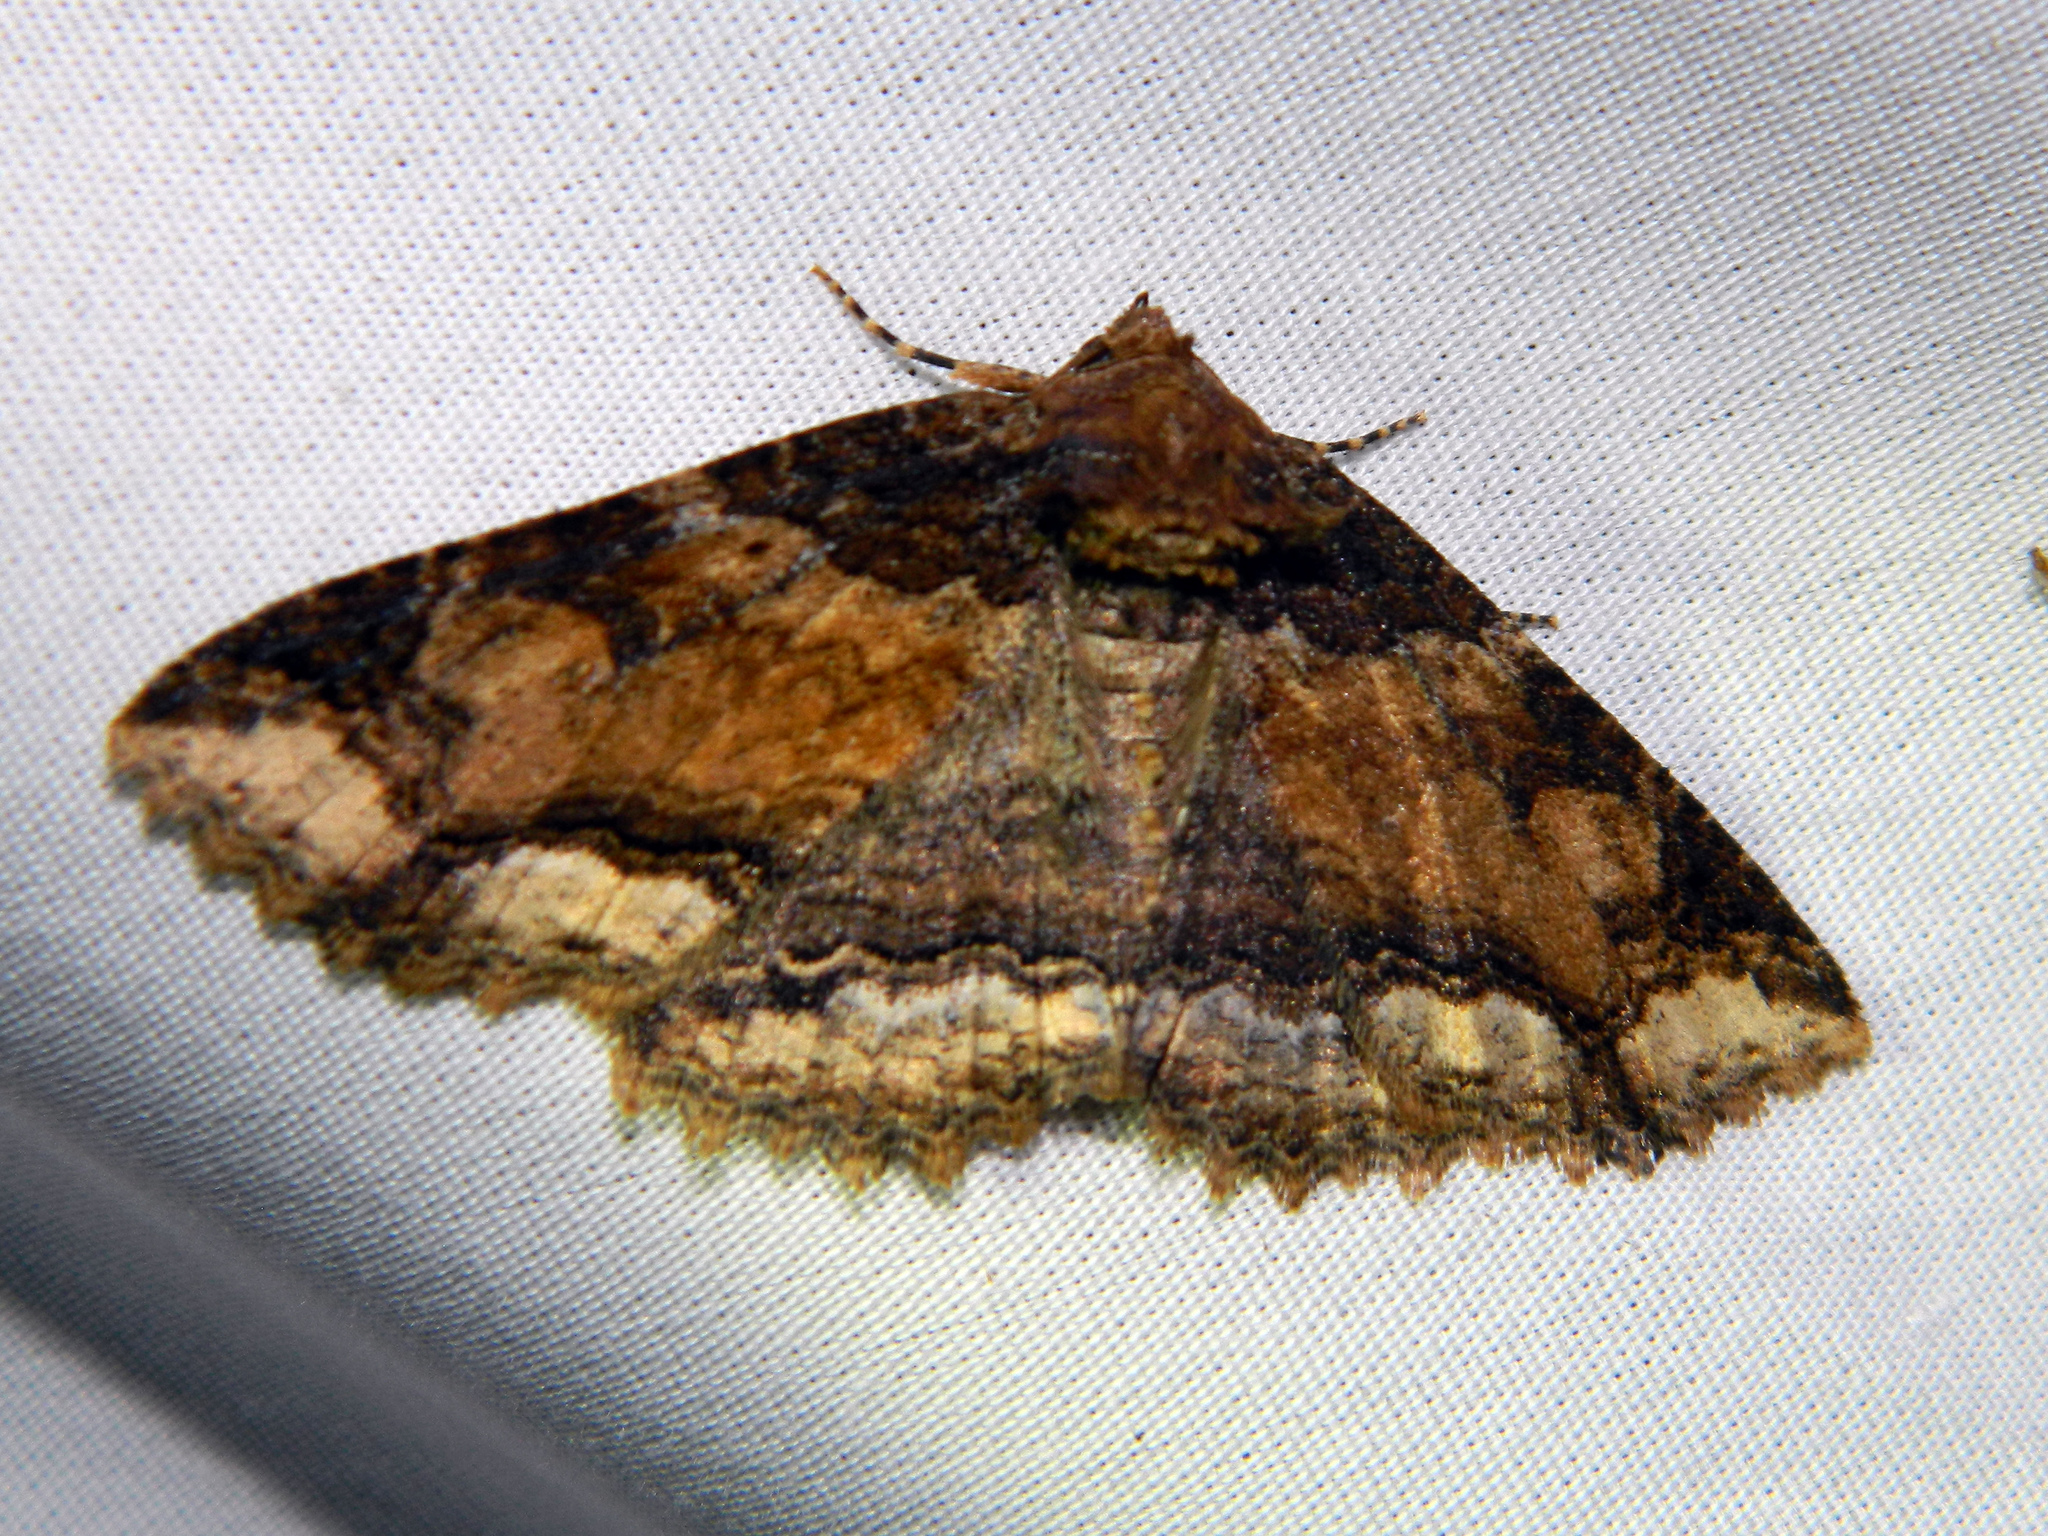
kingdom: Animalia
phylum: Arthropoda
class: Insecta
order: Lepidoptera
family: Erebidae
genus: Zale
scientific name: Zale minerea
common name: Colorful zale moth
